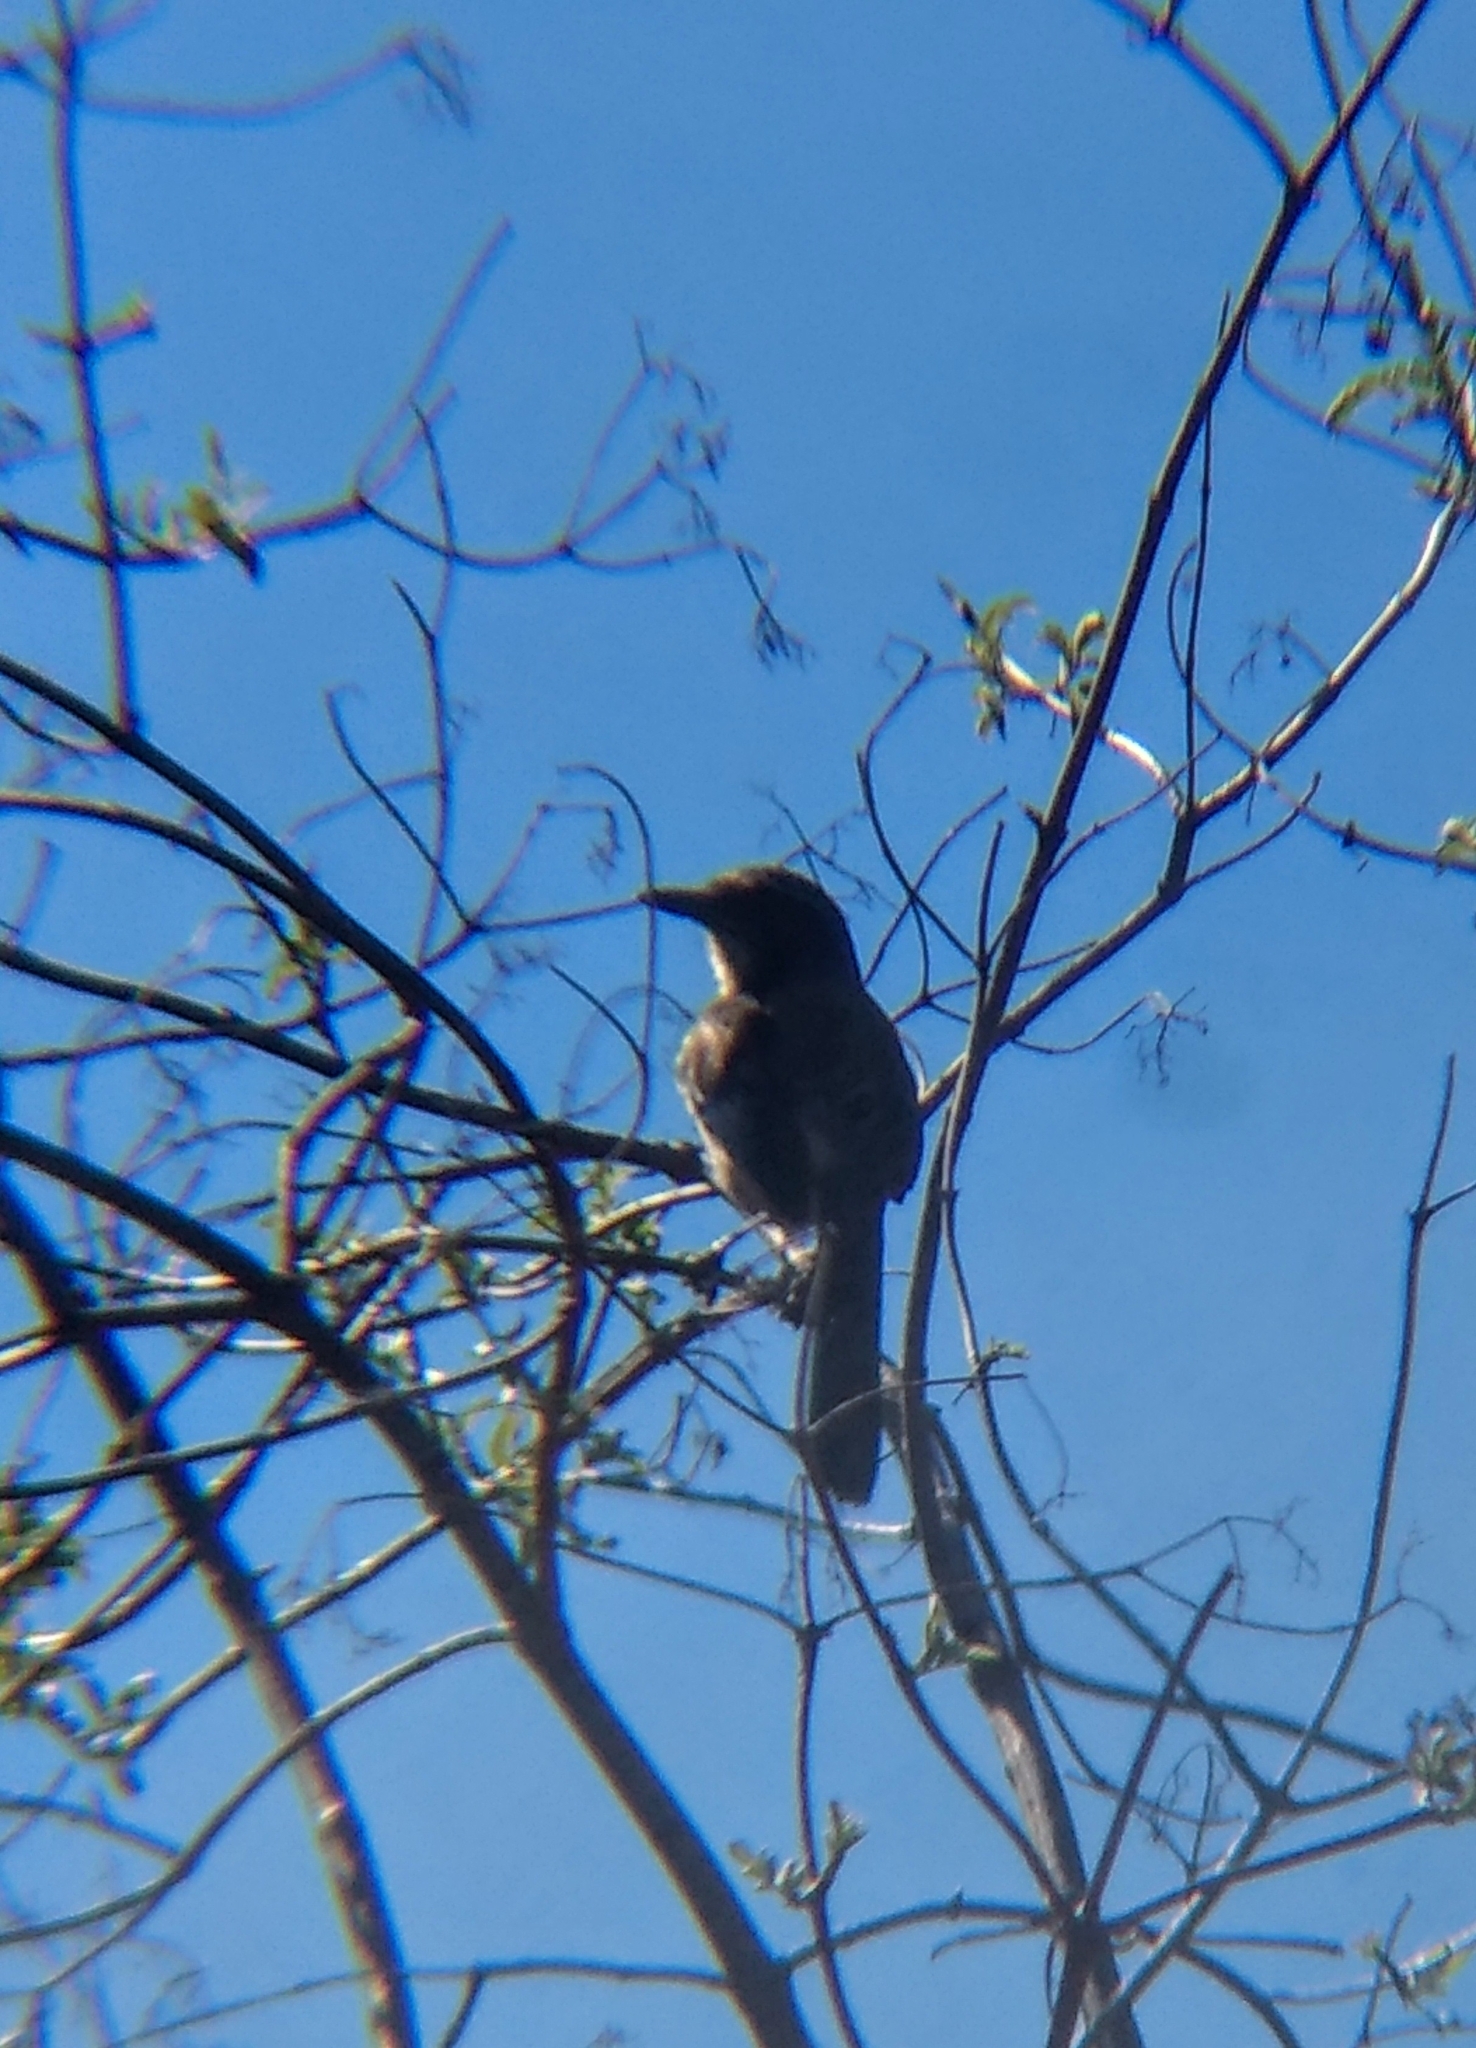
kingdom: Animalia
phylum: Chordata
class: Aves
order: Passeriformes
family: Corvidae
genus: Aphelocoma
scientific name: Aphelocoma californica
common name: California scrub-jay
